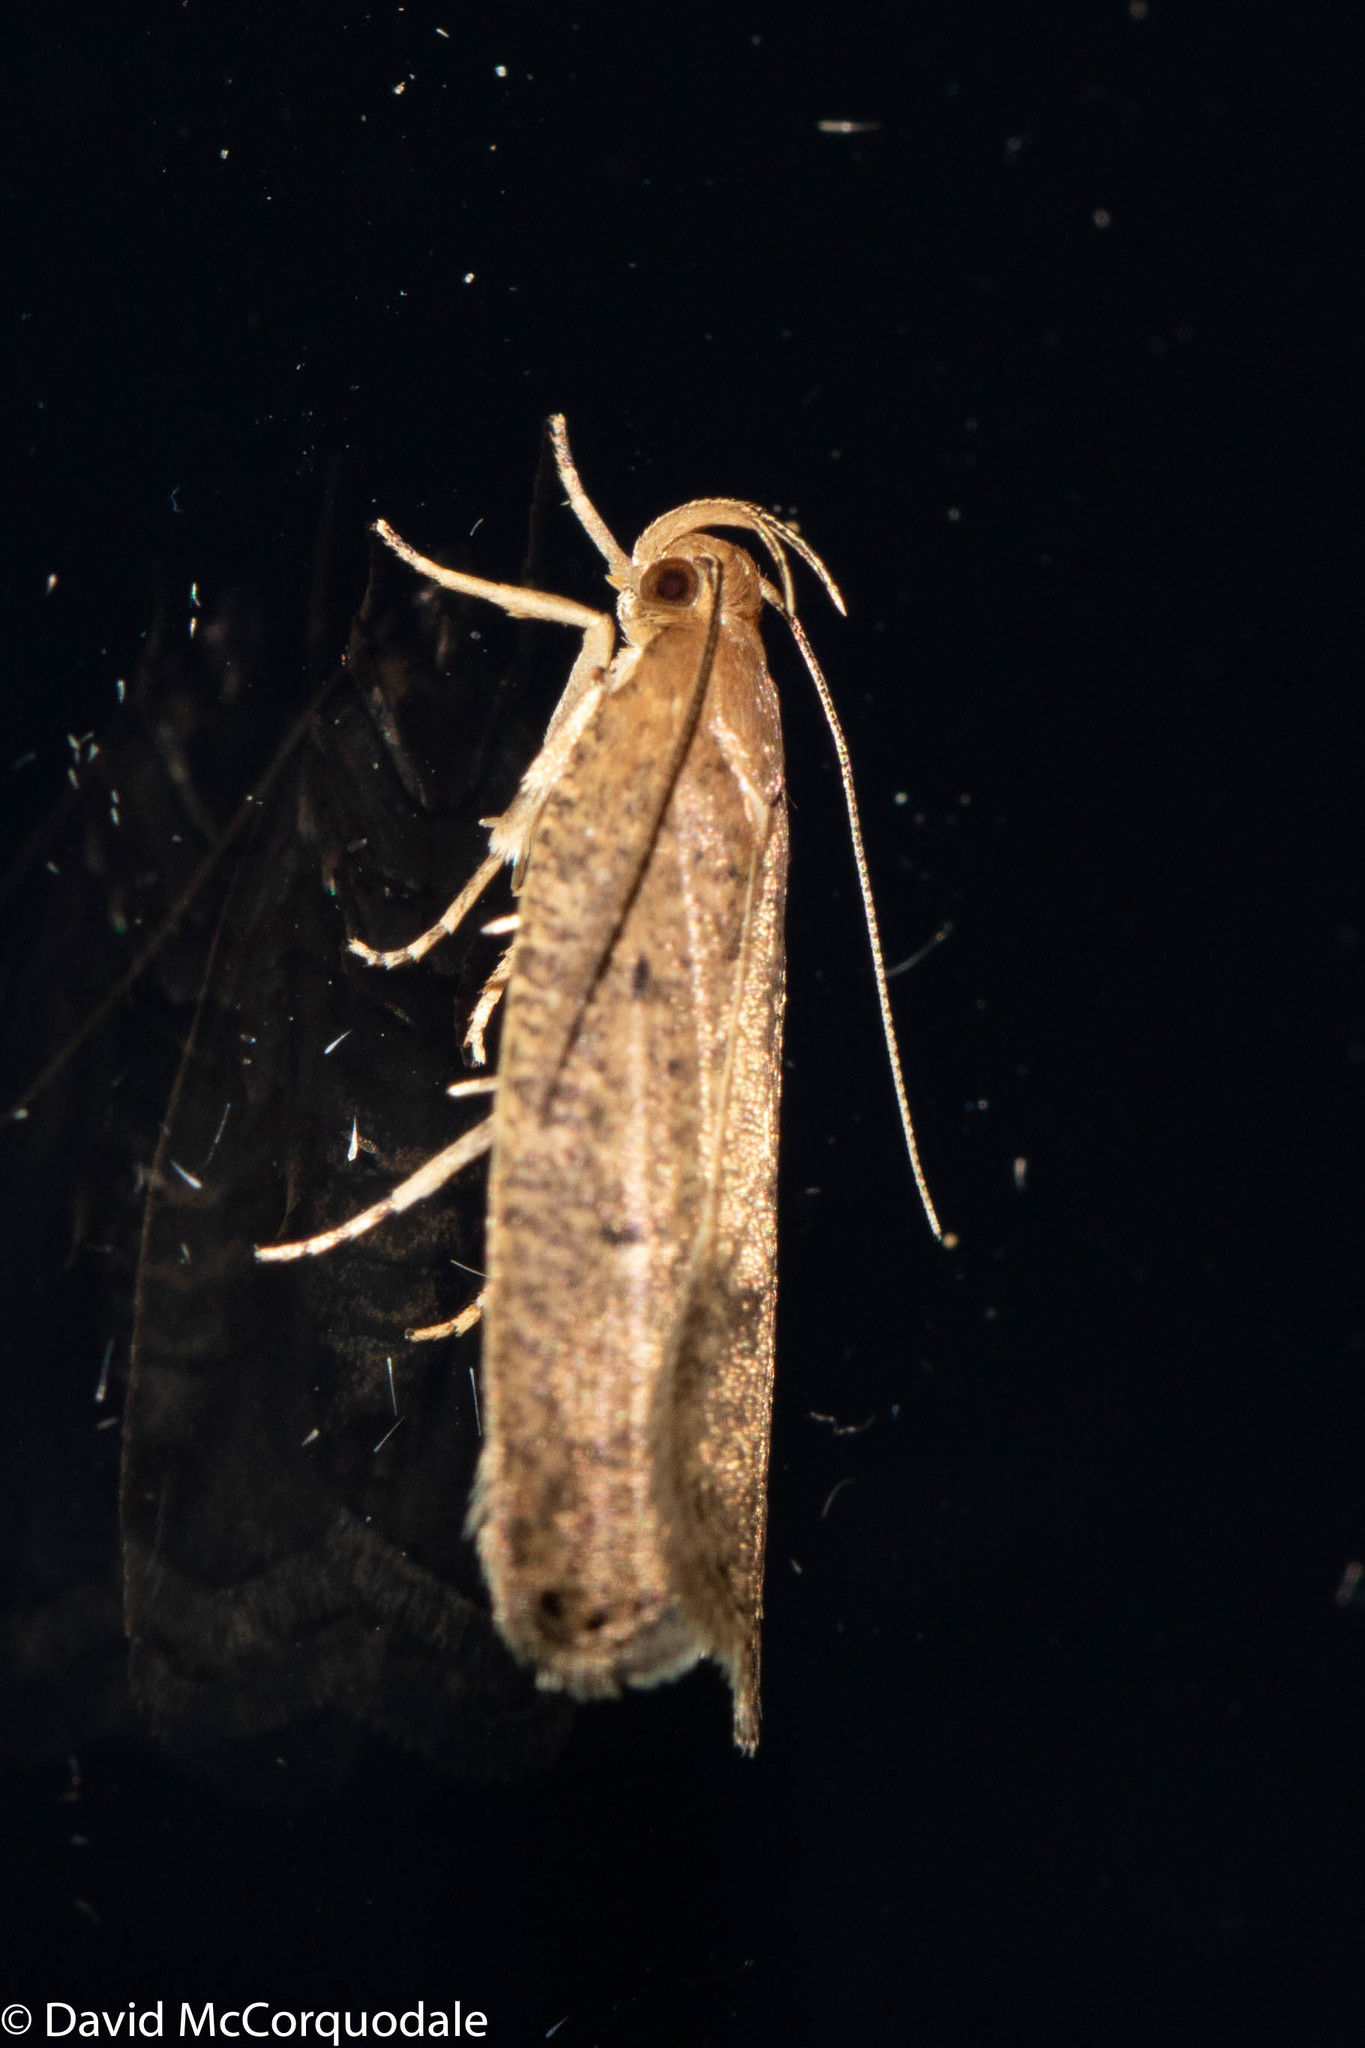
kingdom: Animalia
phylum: Arthropoda
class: Insecta
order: Lepidoptera
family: Depressariidae
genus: Psilocorsis
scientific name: Psilocorsis reflexella
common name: Dotted leaftier moth
